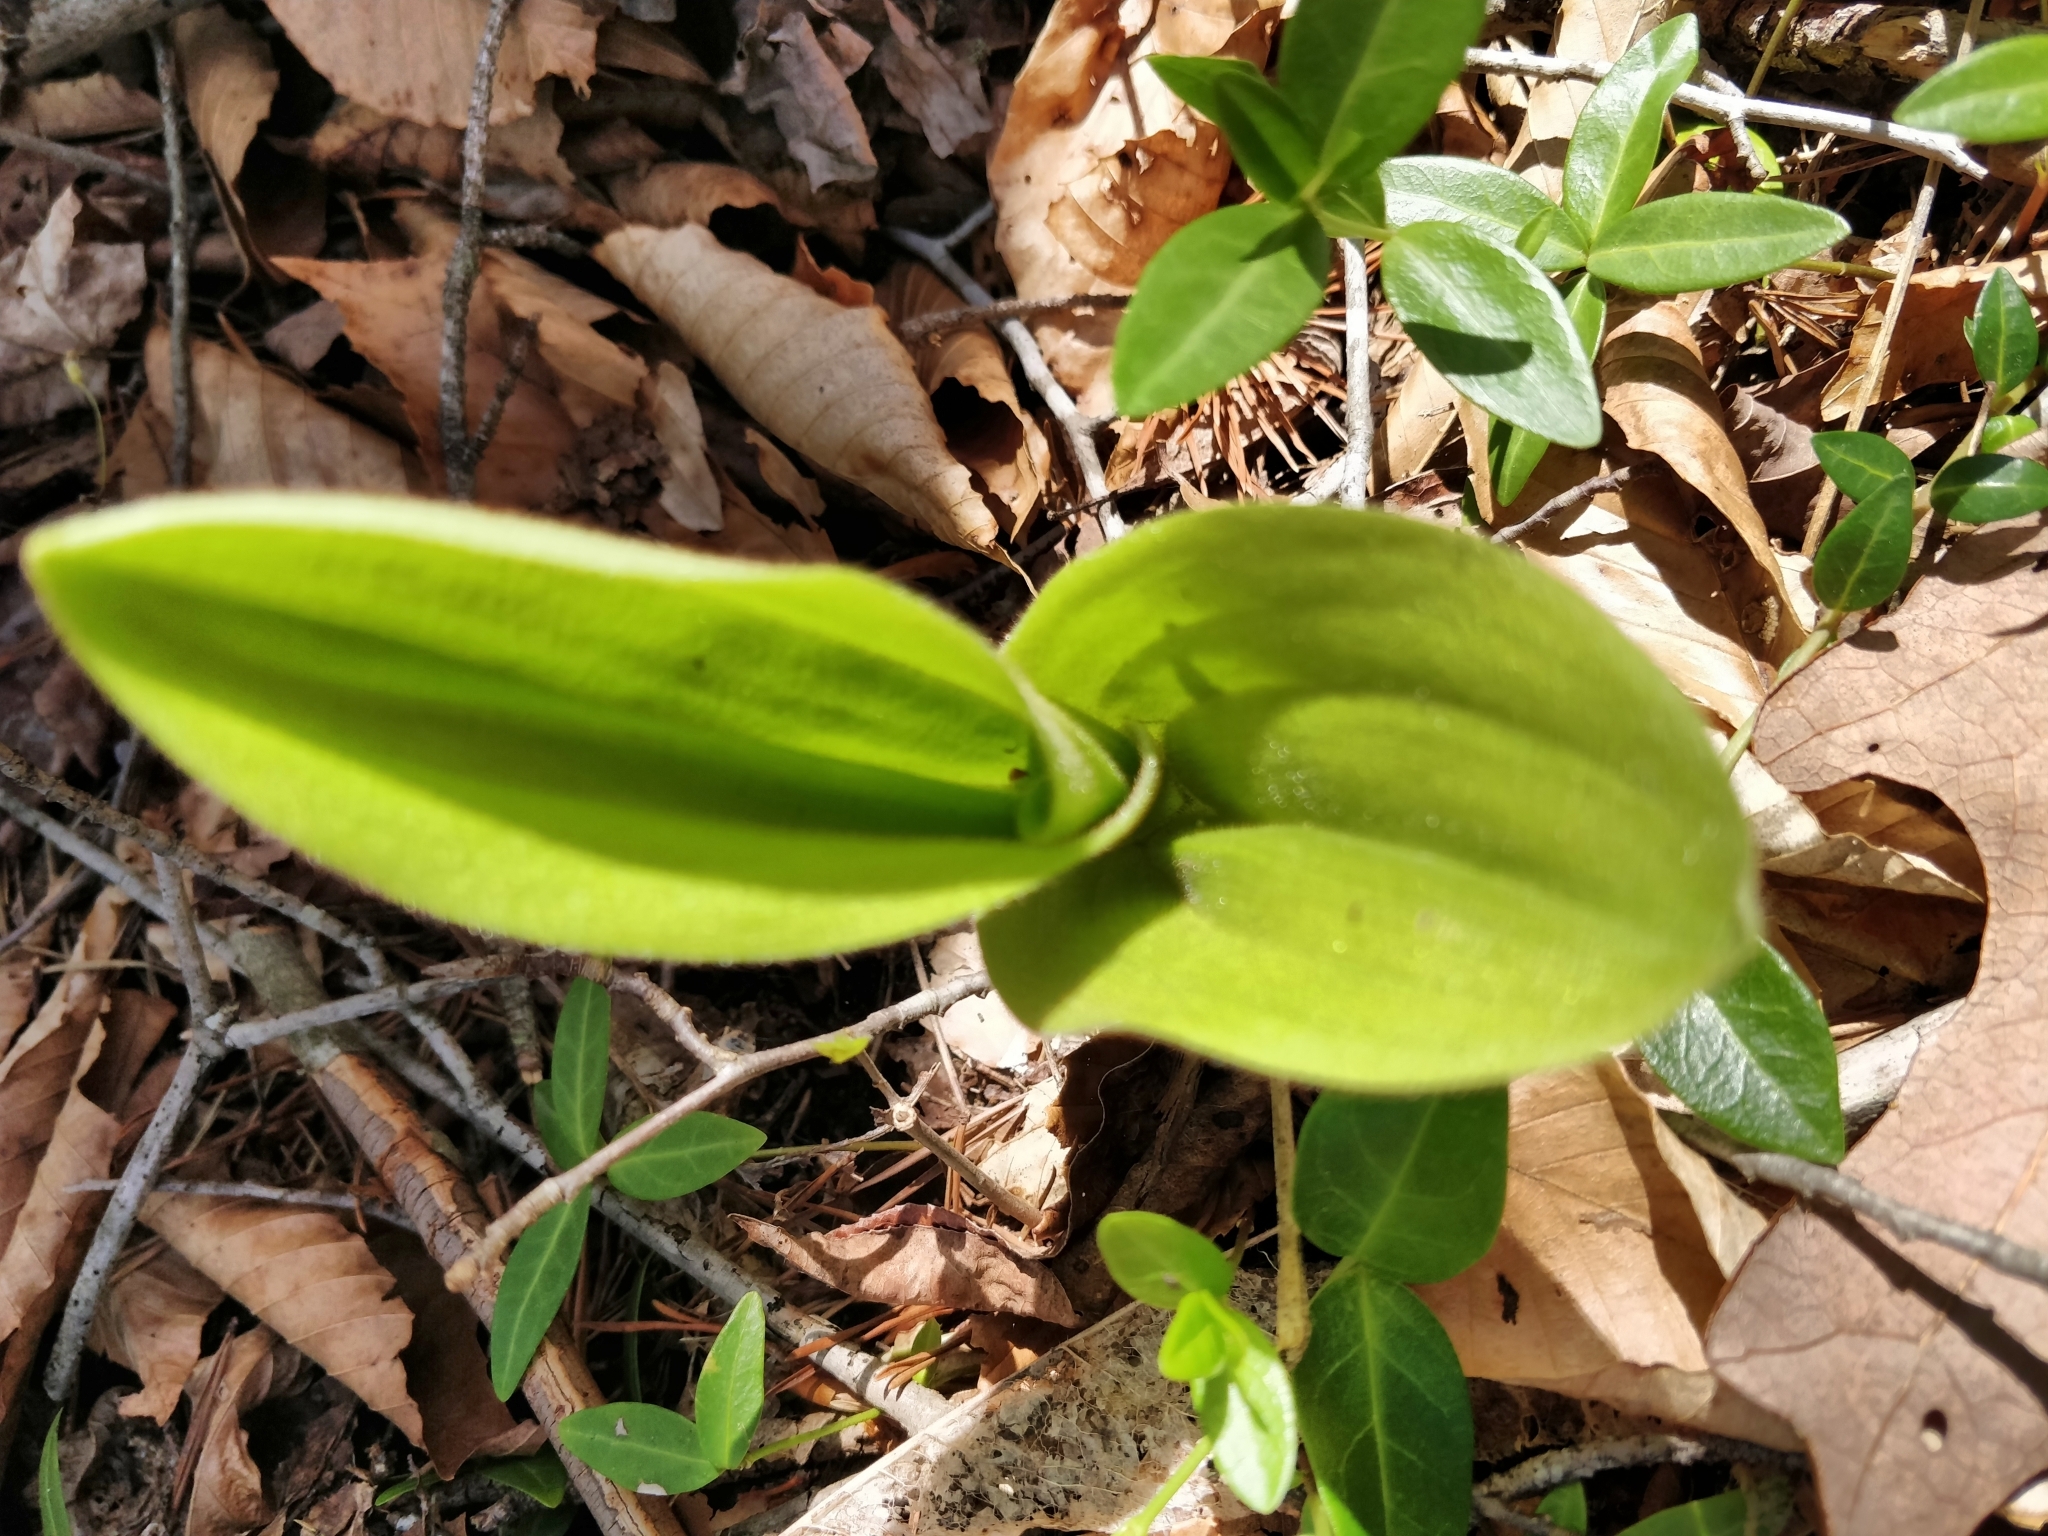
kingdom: Plantae
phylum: Tracheophyta
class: Liliopsida
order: Asparagales
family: Orchidaceae
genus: Cypripedium
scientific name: Cypripedium acaule
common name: Pink lady's-slipper
